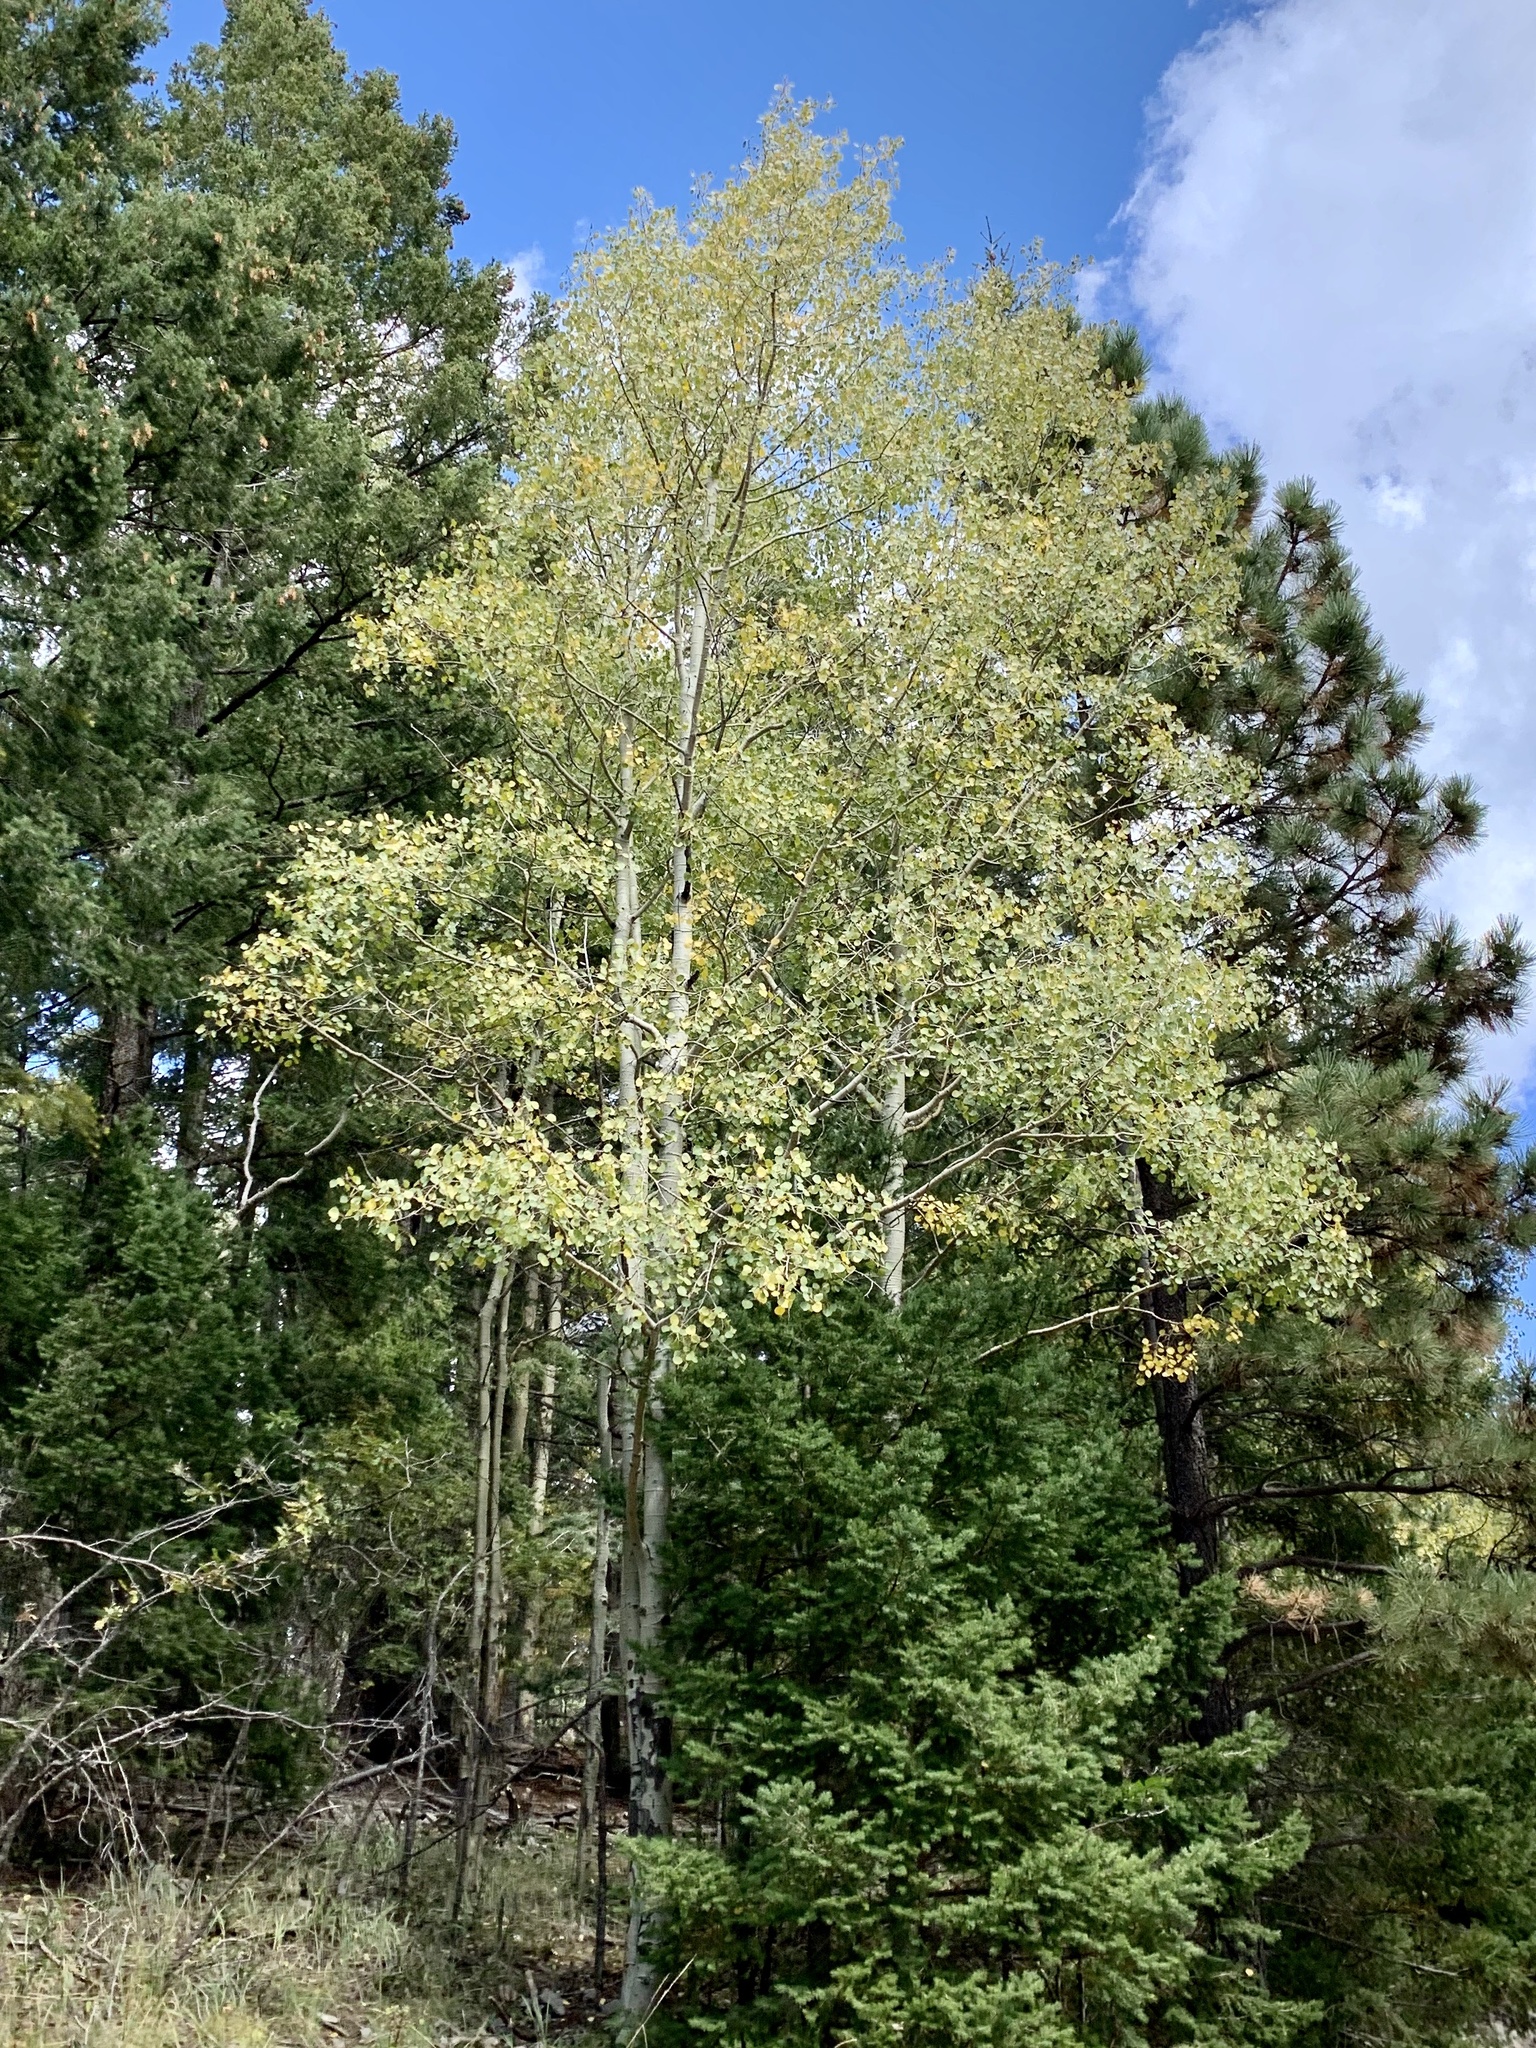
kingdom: Plantae
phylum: Tracheophyta
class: Magnoliopsida
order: Malpighiales
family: Salicaceae
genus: Populus
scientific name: Populus tremuloides
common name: Quaking aspen
